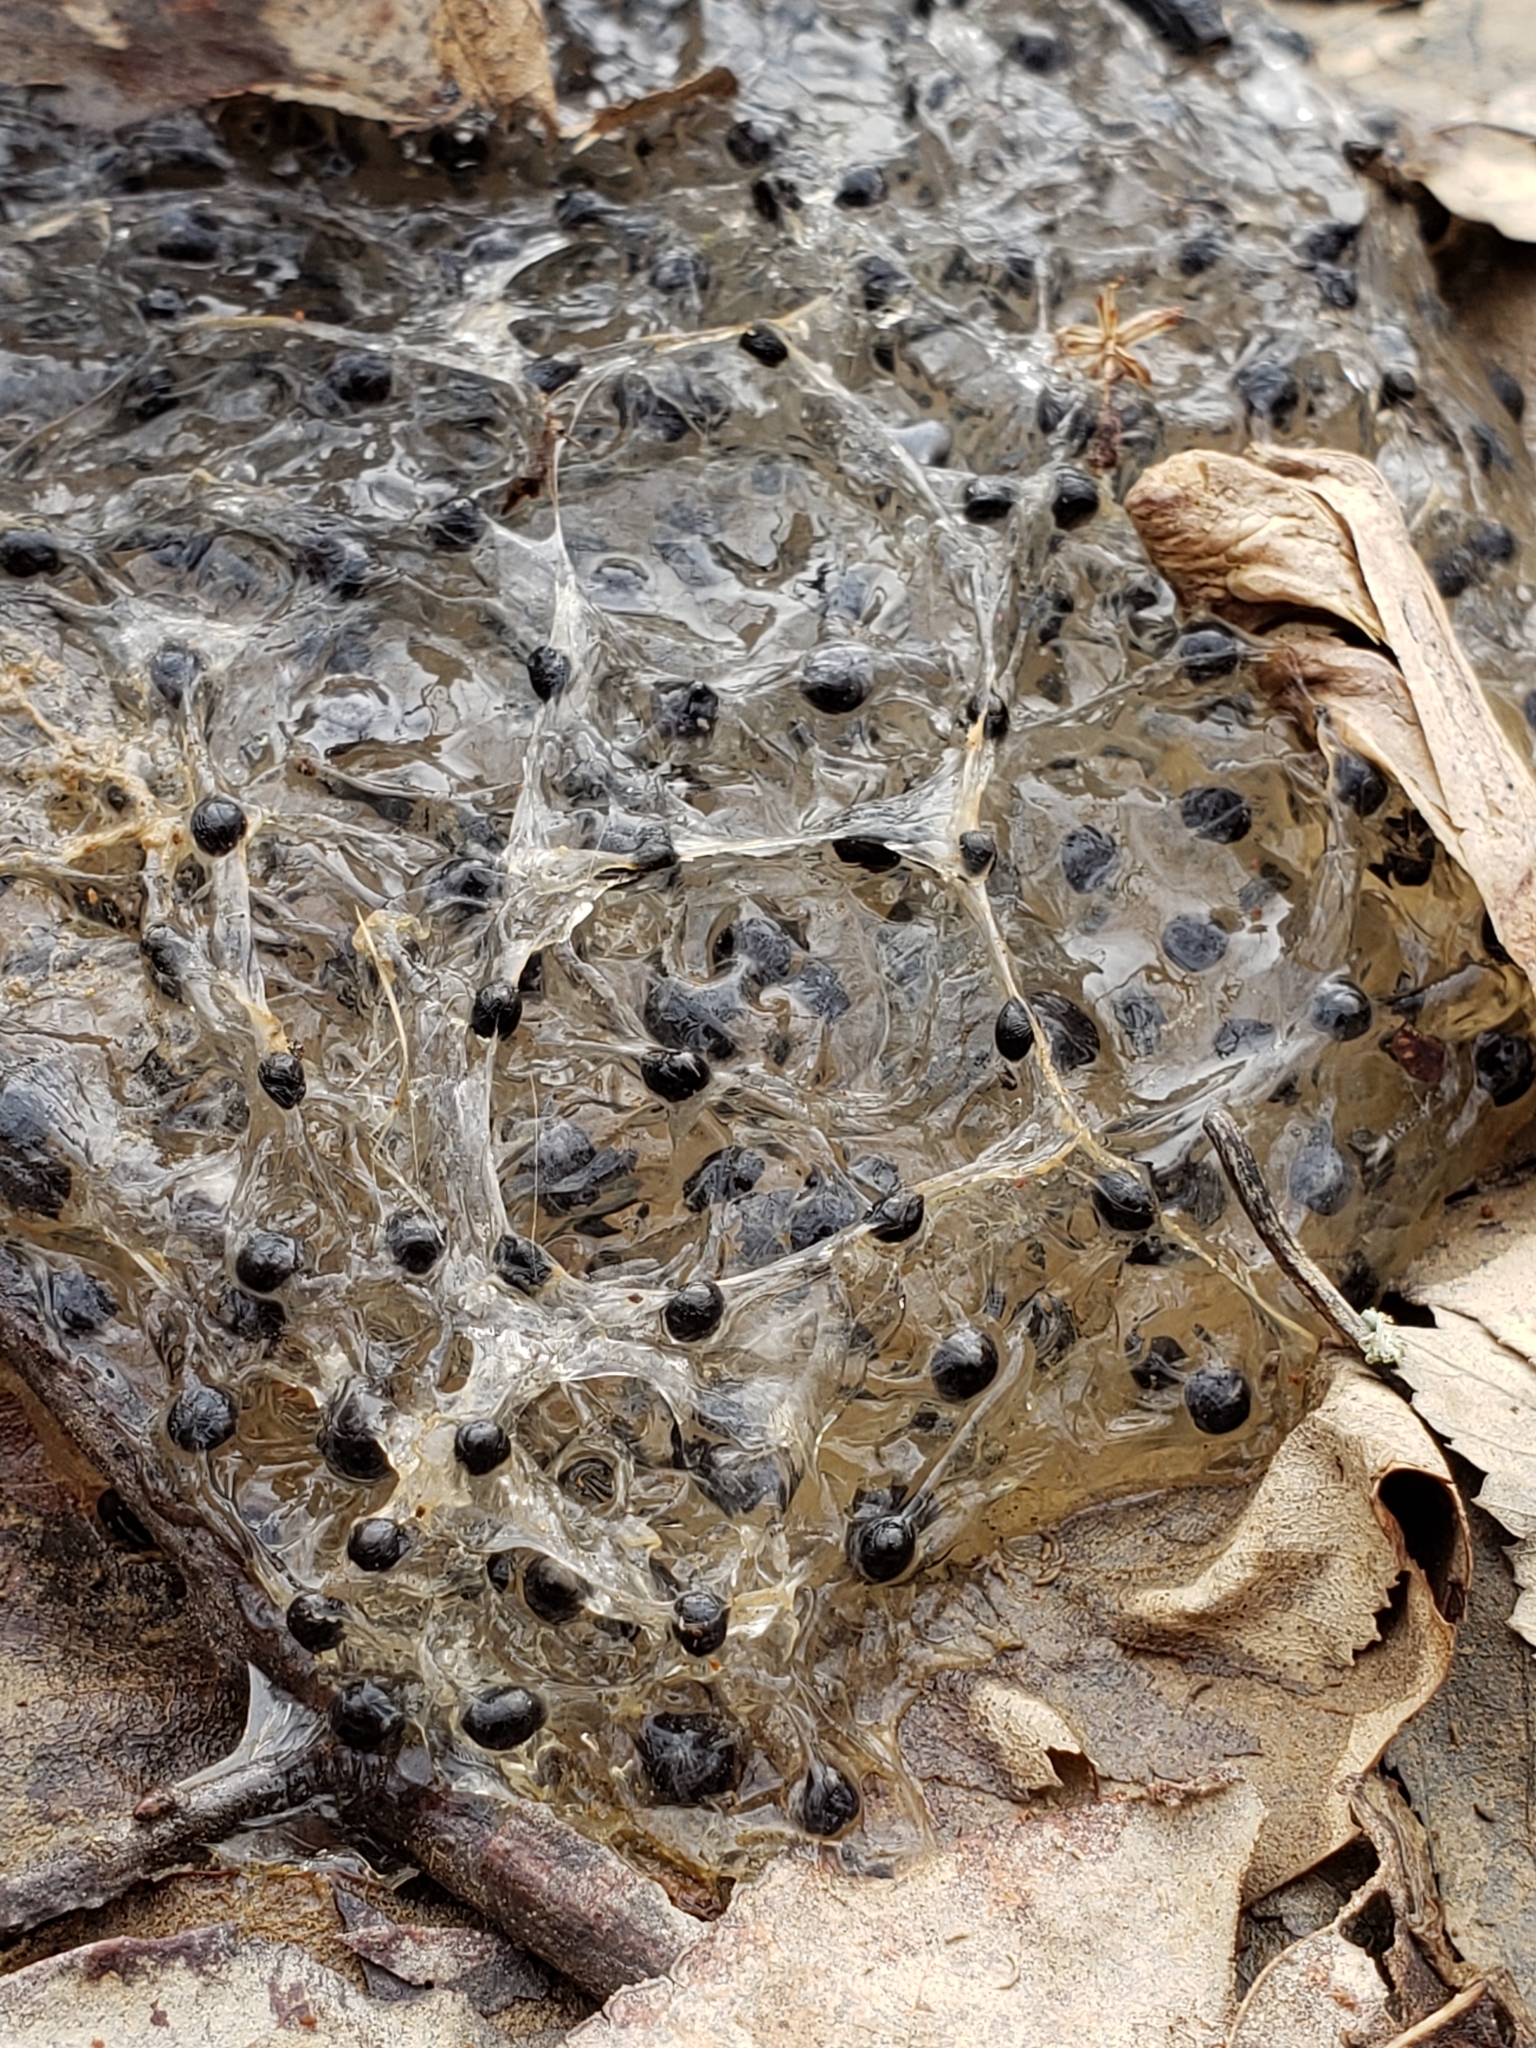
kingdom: Animalia
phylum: Chordata
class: Amphibia
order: Anura
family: Ranidae
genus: Lithobates
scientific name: Lithobates sylvaticus
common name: Wood frog
